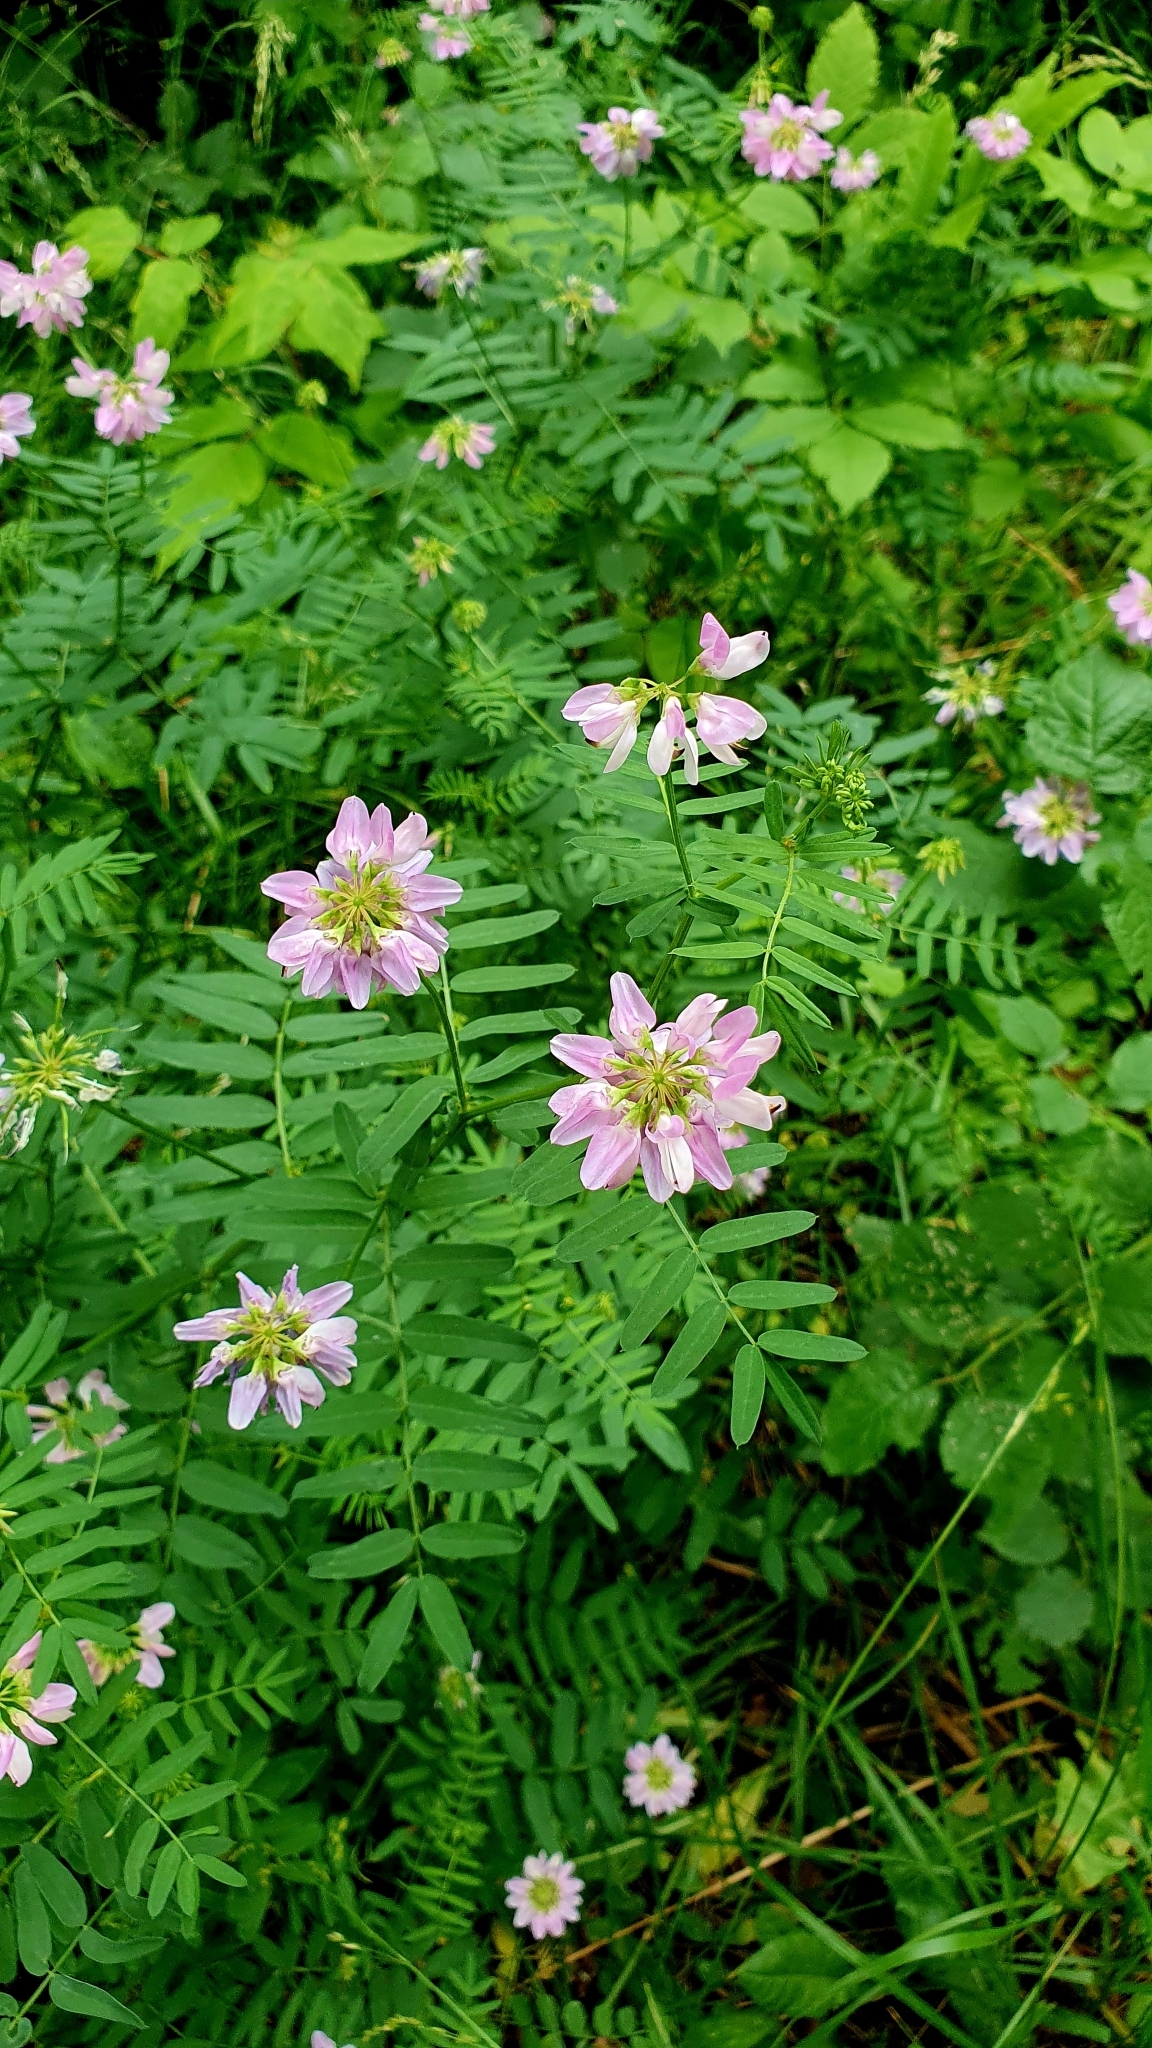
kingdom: Plantae
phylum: Tracheophyta
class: Magnoliopsida
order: Fabales
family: Fabaceae
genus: Coronilla
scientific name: Coronilla varia
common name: Crownvetch
